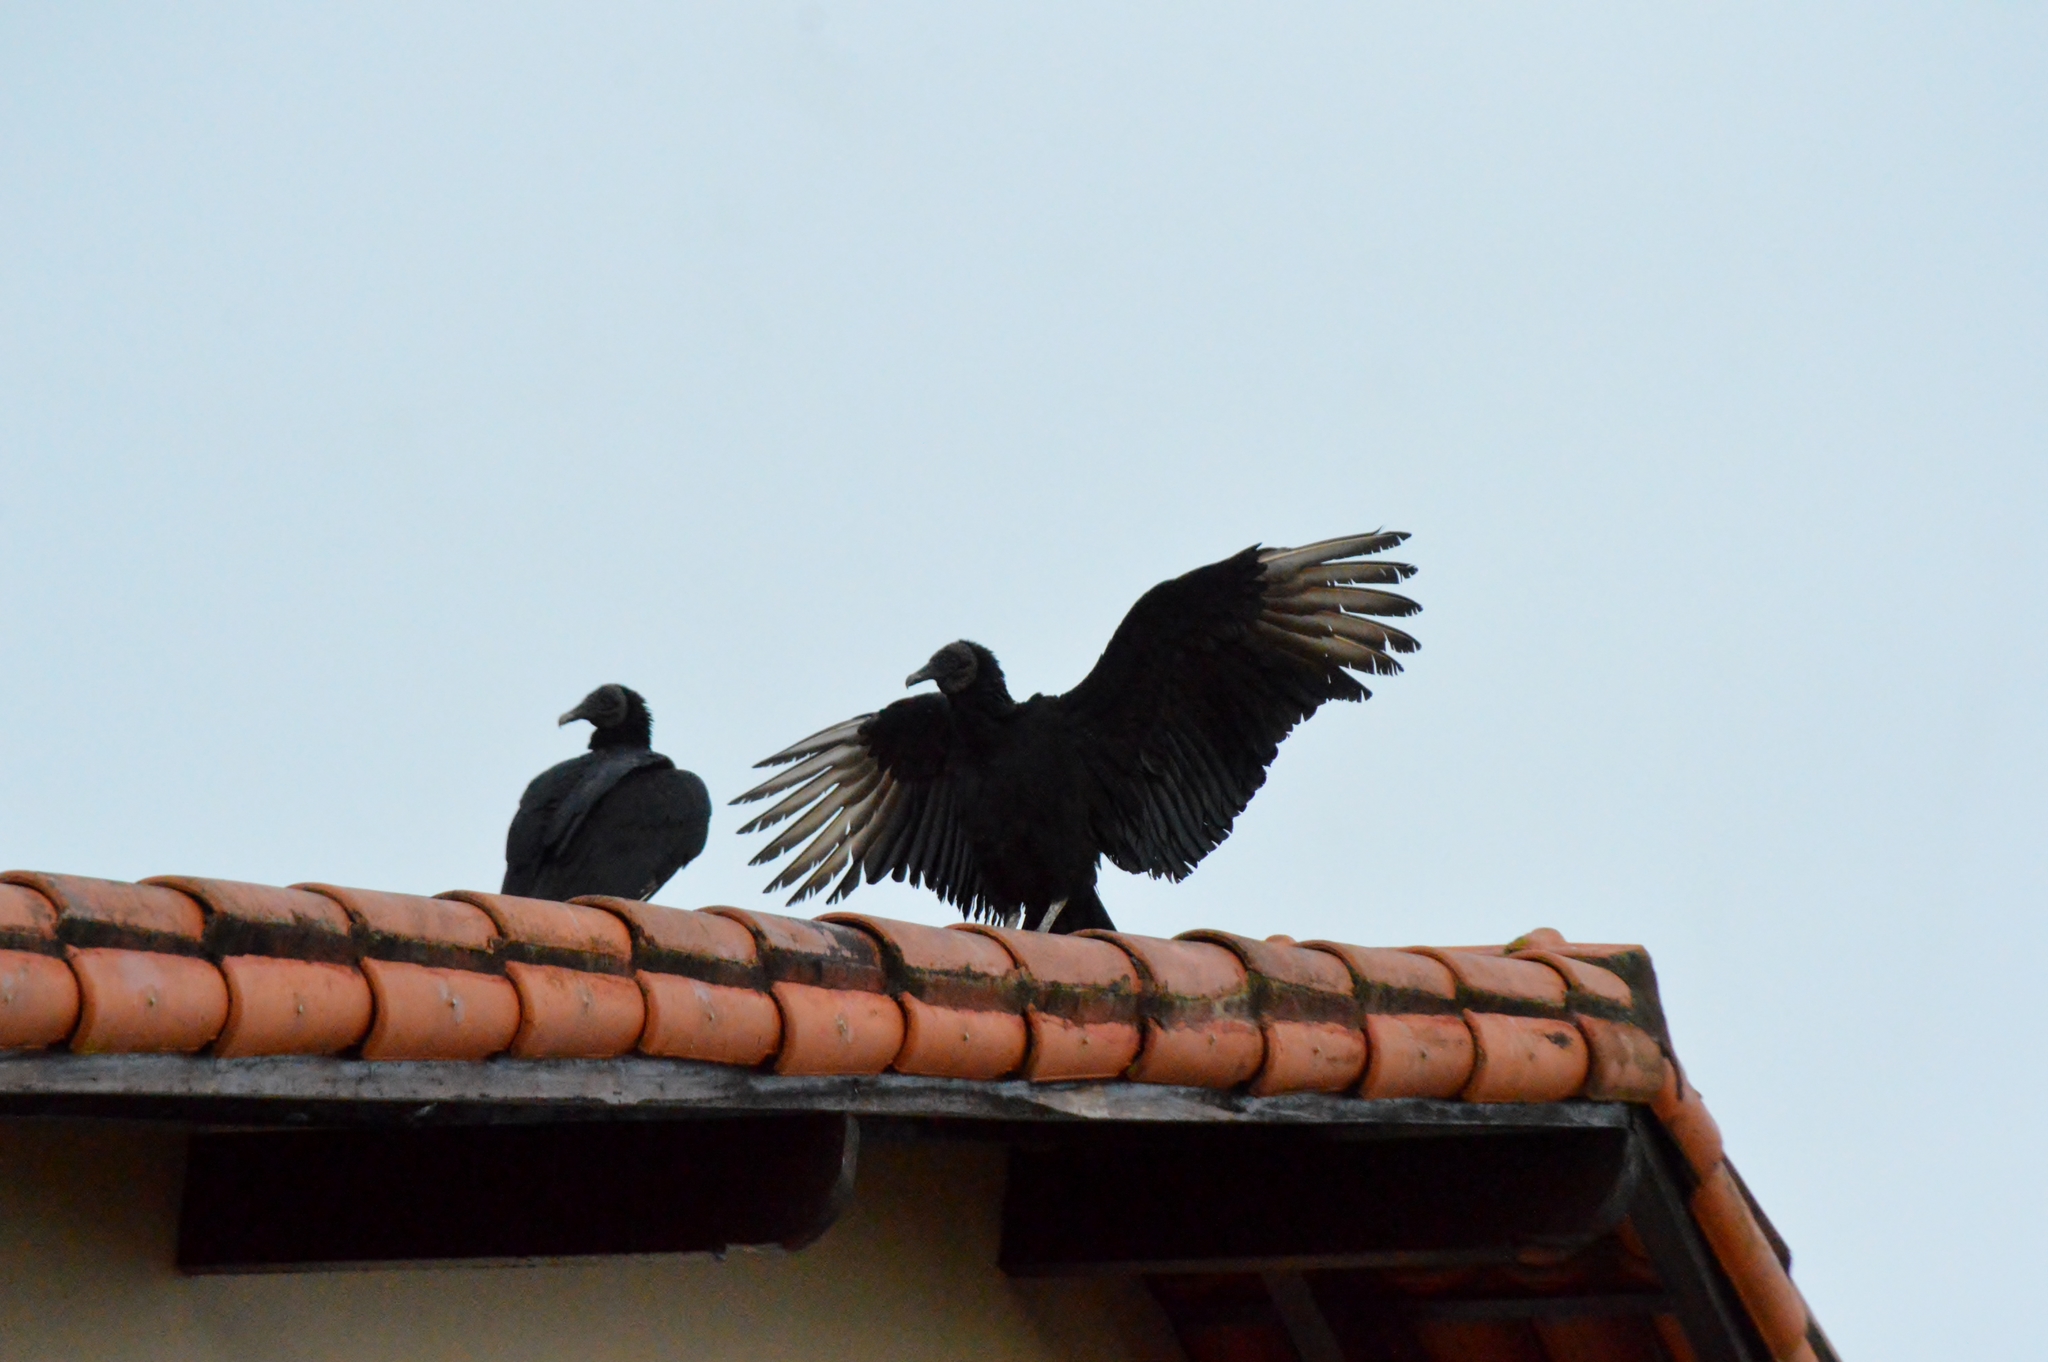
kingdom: Animalia
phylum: Chordata
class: Aves
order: Accipitriformes
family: Cathartidae
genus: Coragyps
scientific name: Coragyps atratus
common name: Black vulture
